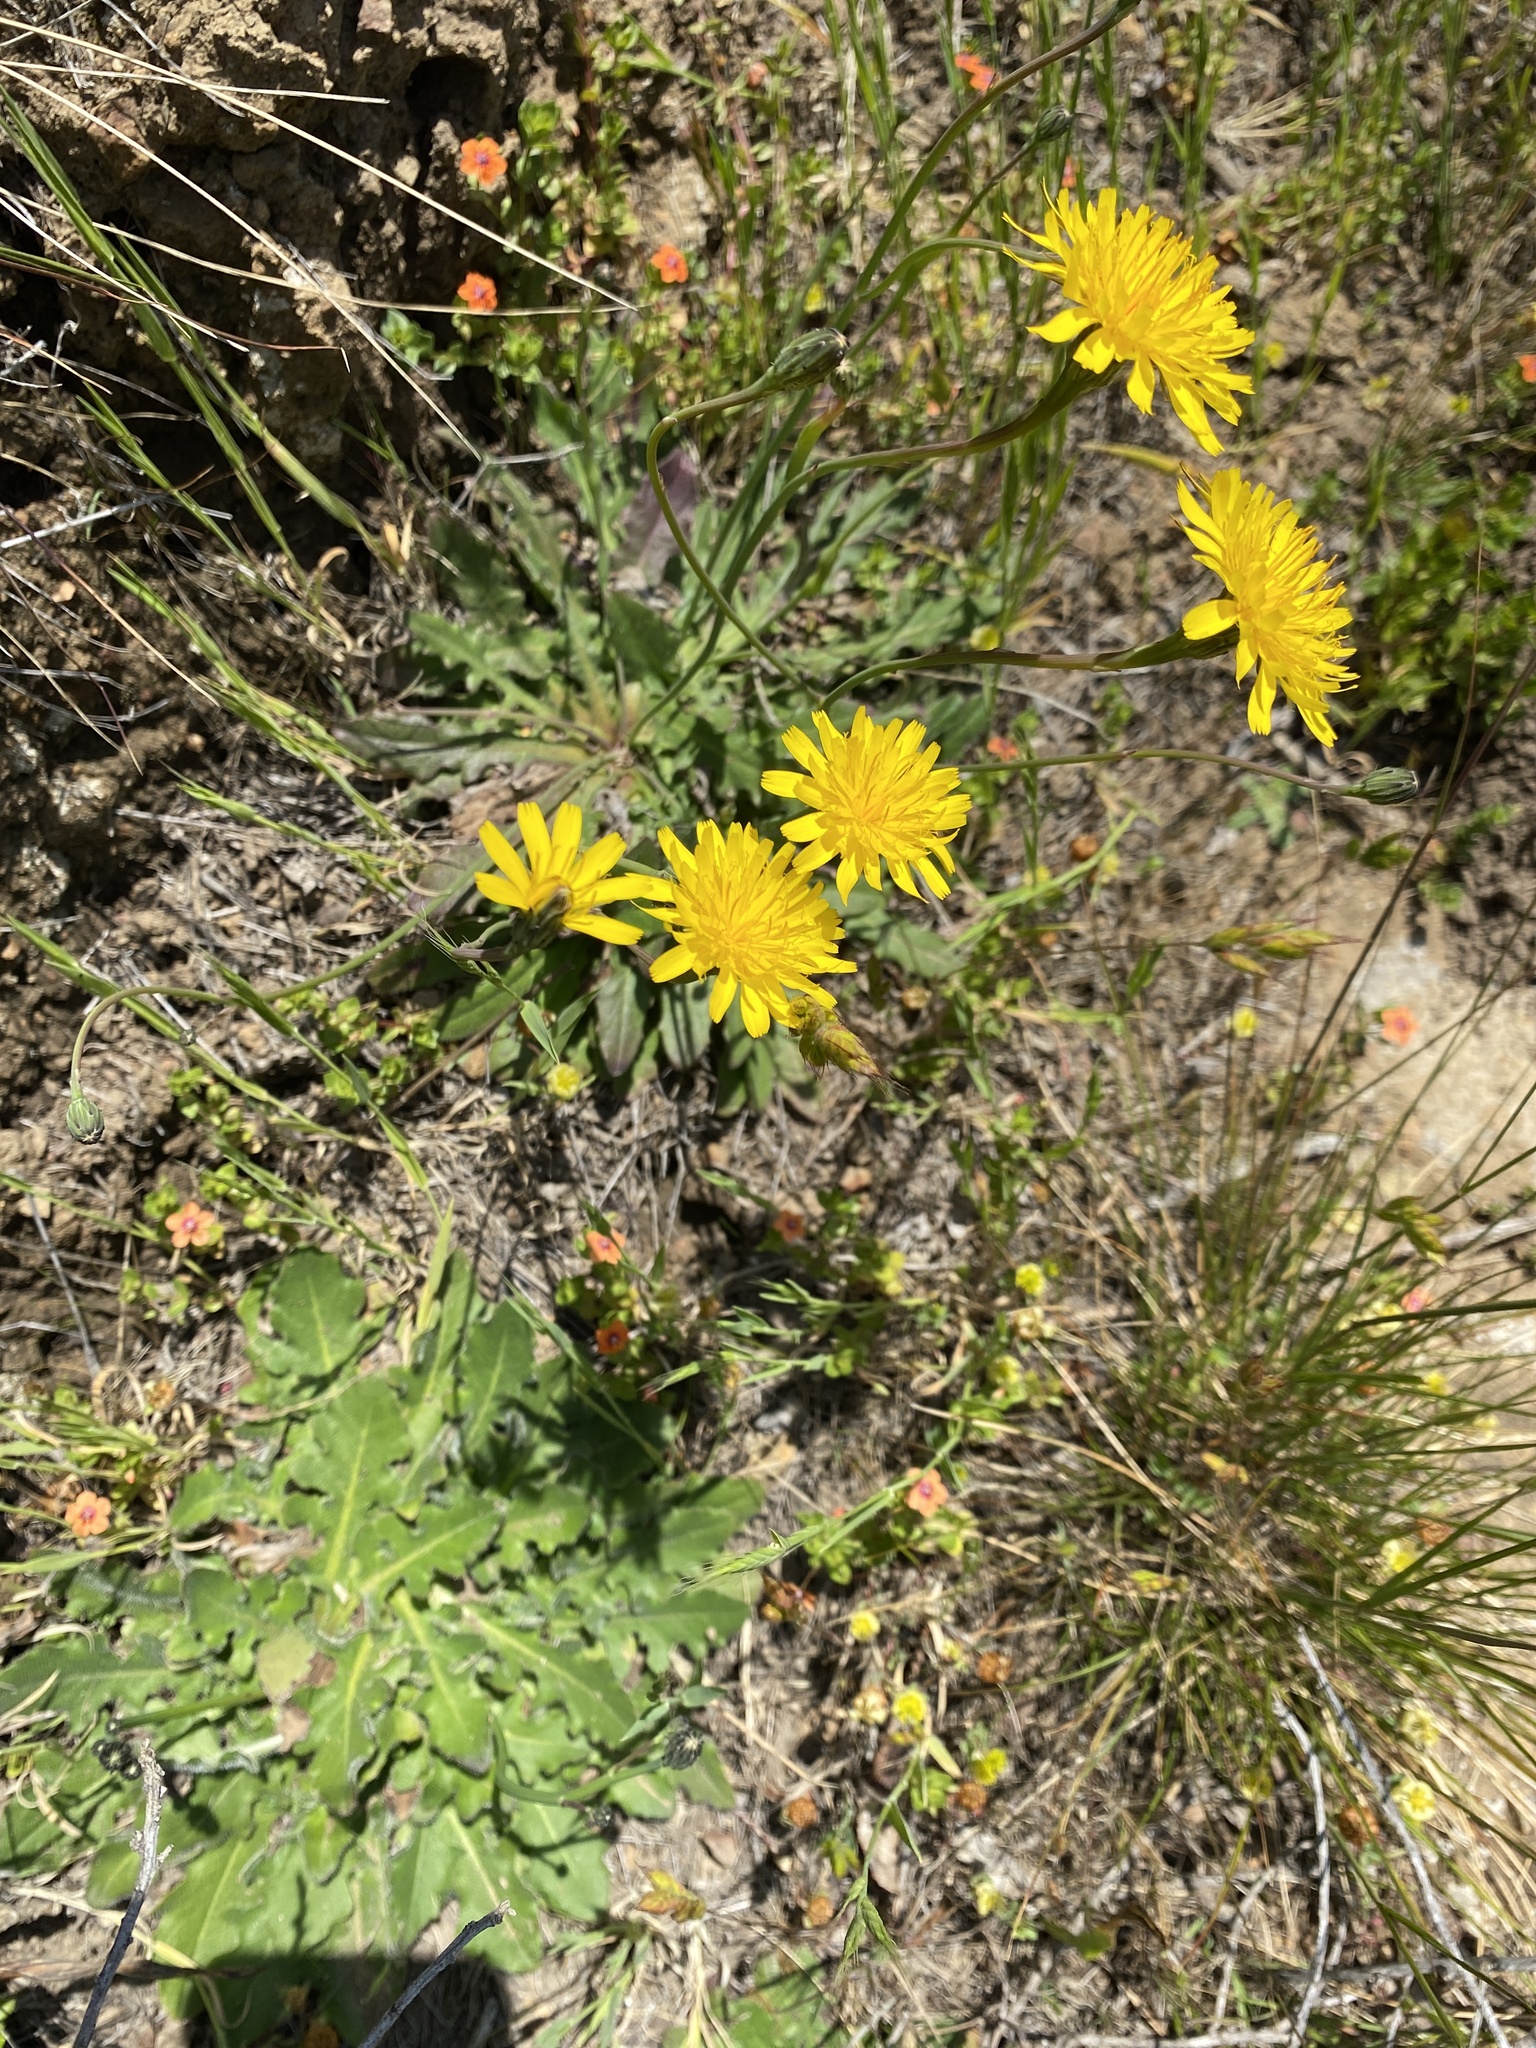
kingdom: Plantae
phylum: Tracheophyta
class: Magnoliopsida
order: Asterales
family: Asteraceae
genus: Hypochaeris
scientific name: Hypochaeris radicata
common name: Flatweed
